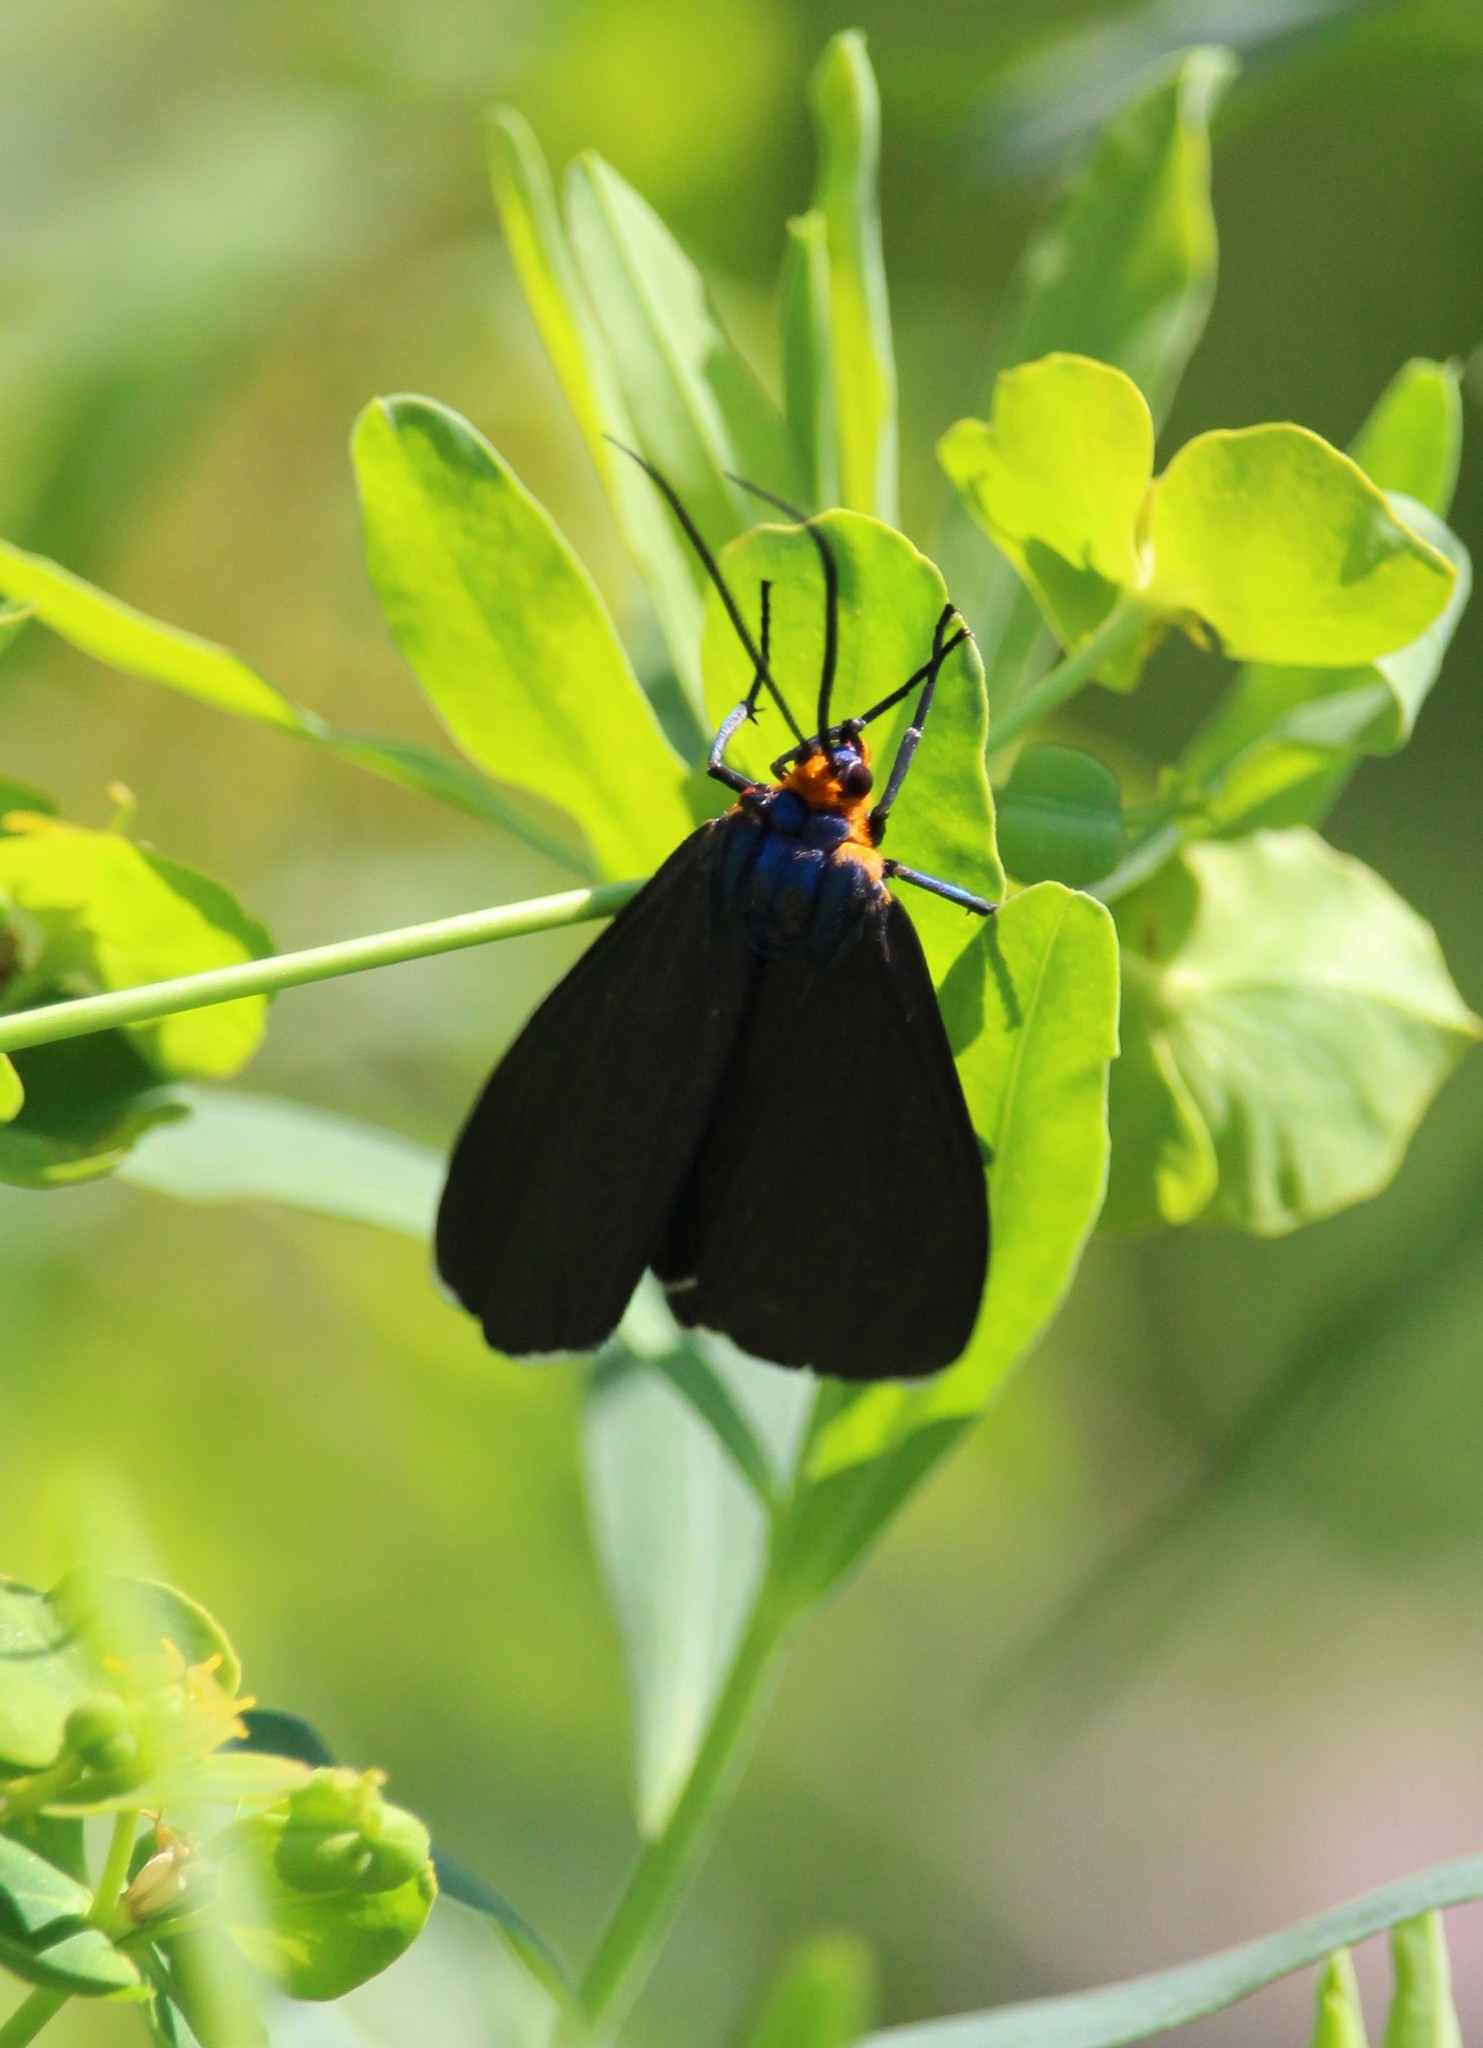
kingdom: Animalia
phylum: Arthropoda
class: Insecta
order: Lepidoptera
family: Erebidae
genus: Ctenucha
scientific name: Ctenucha virginica
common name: Virginia ctenucha moth
